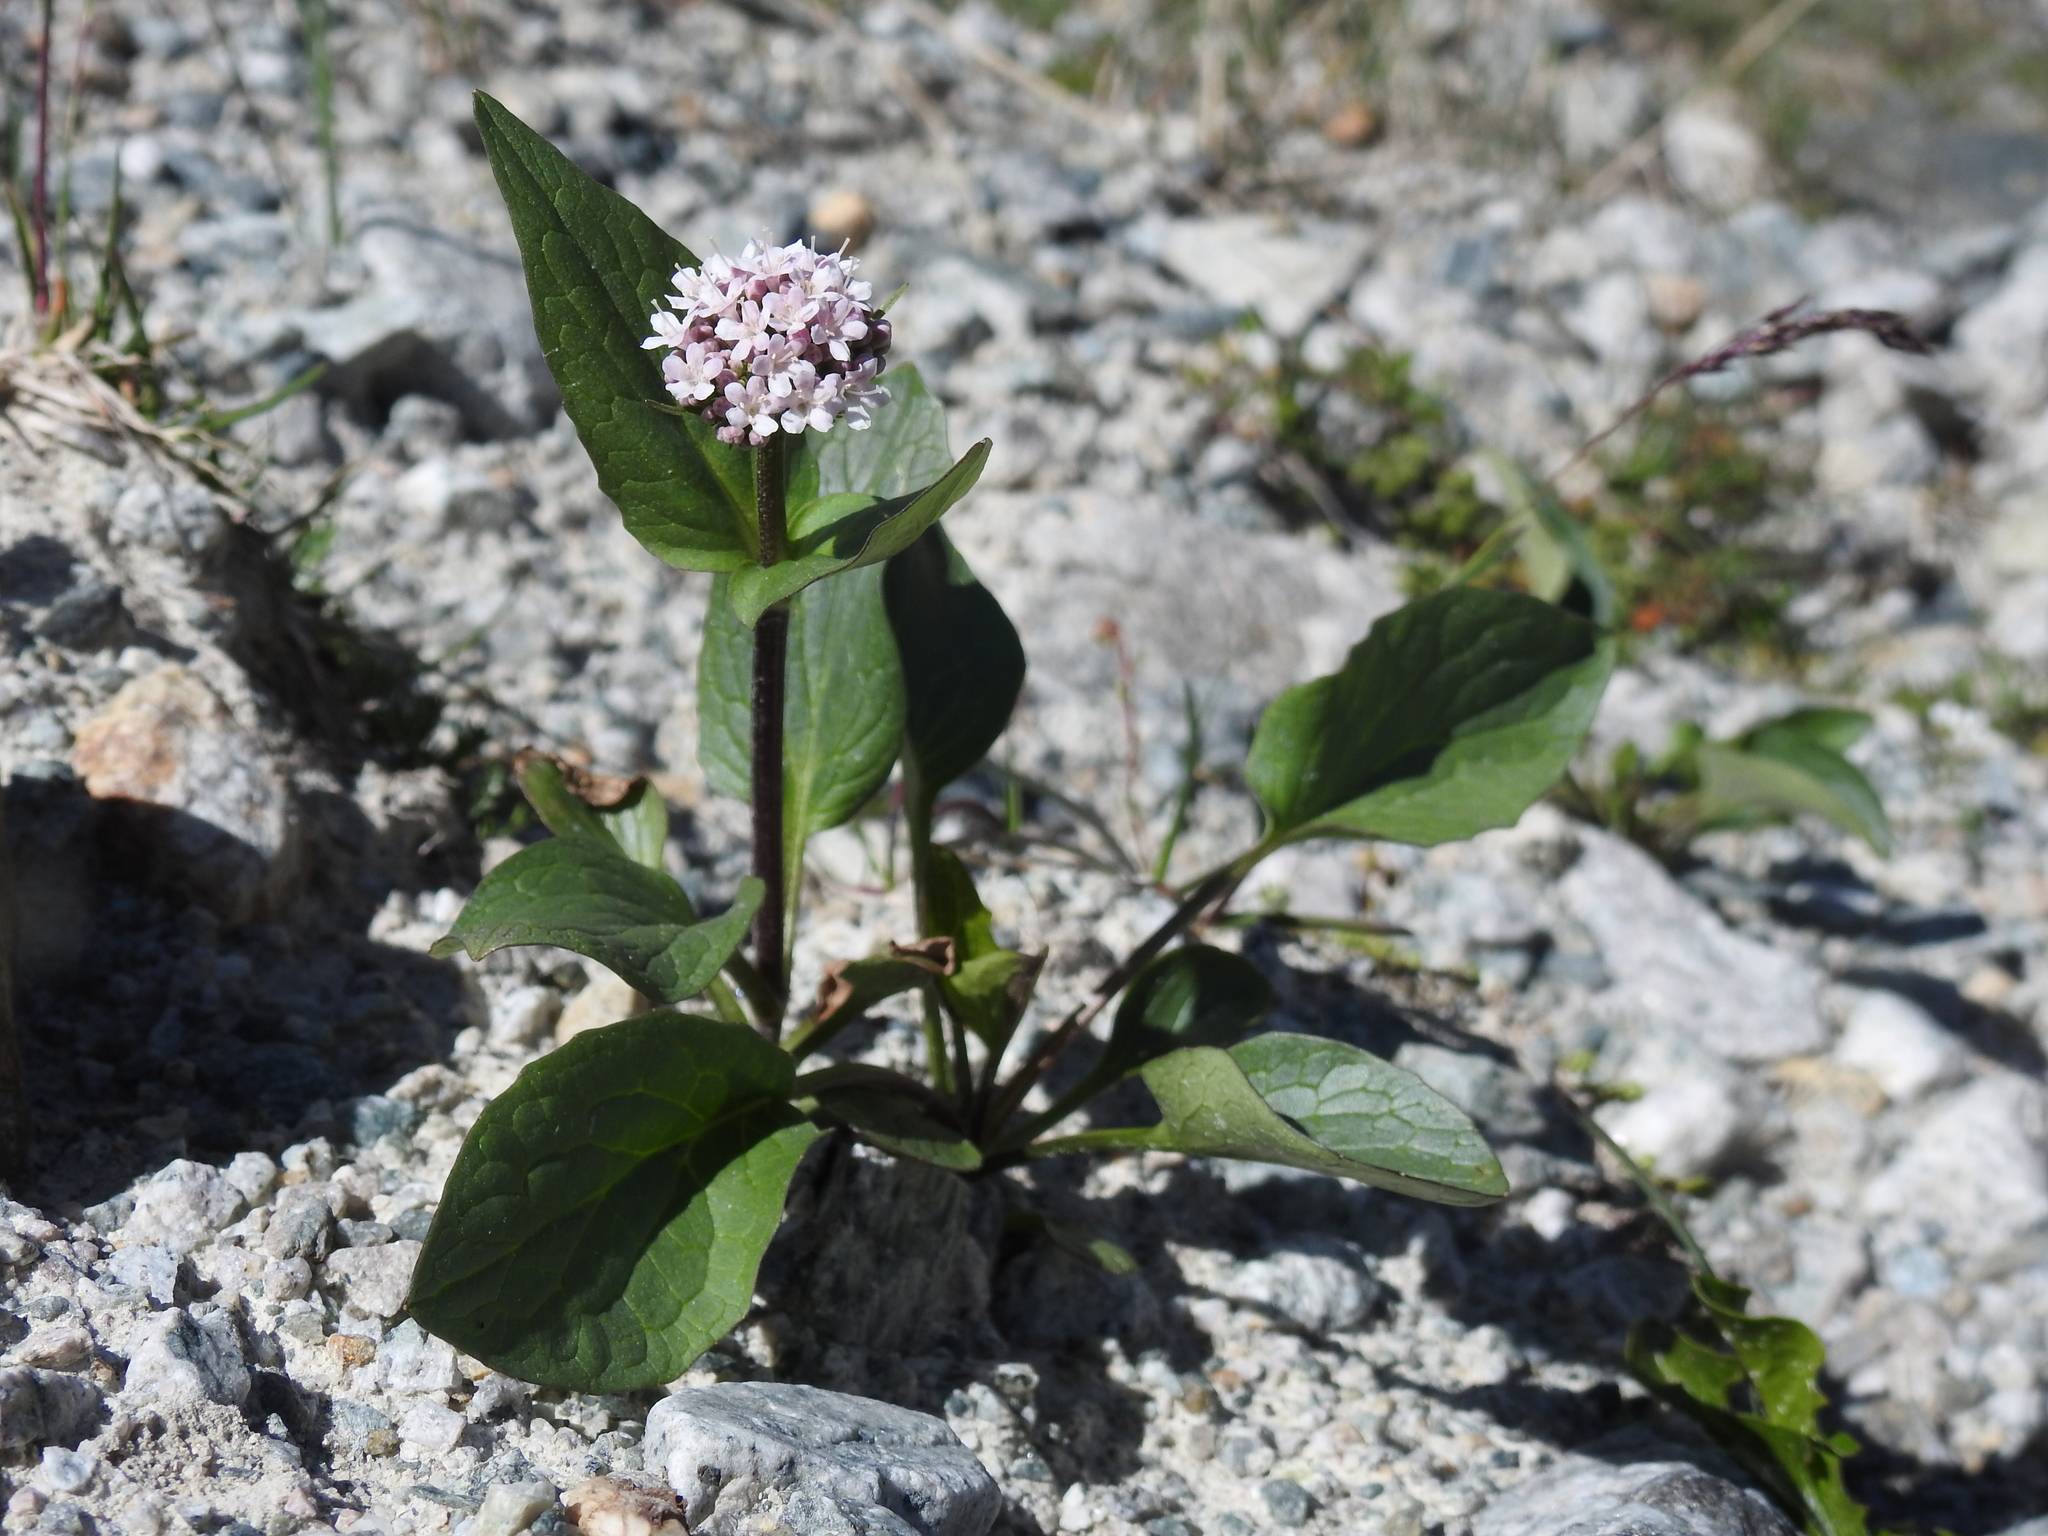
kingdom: Plantae
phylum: Tracheophyta
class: Magnoliopsida
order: Dipsacales
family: Caprifoliaceae
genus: Valeriana
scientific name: Valeriana montana
